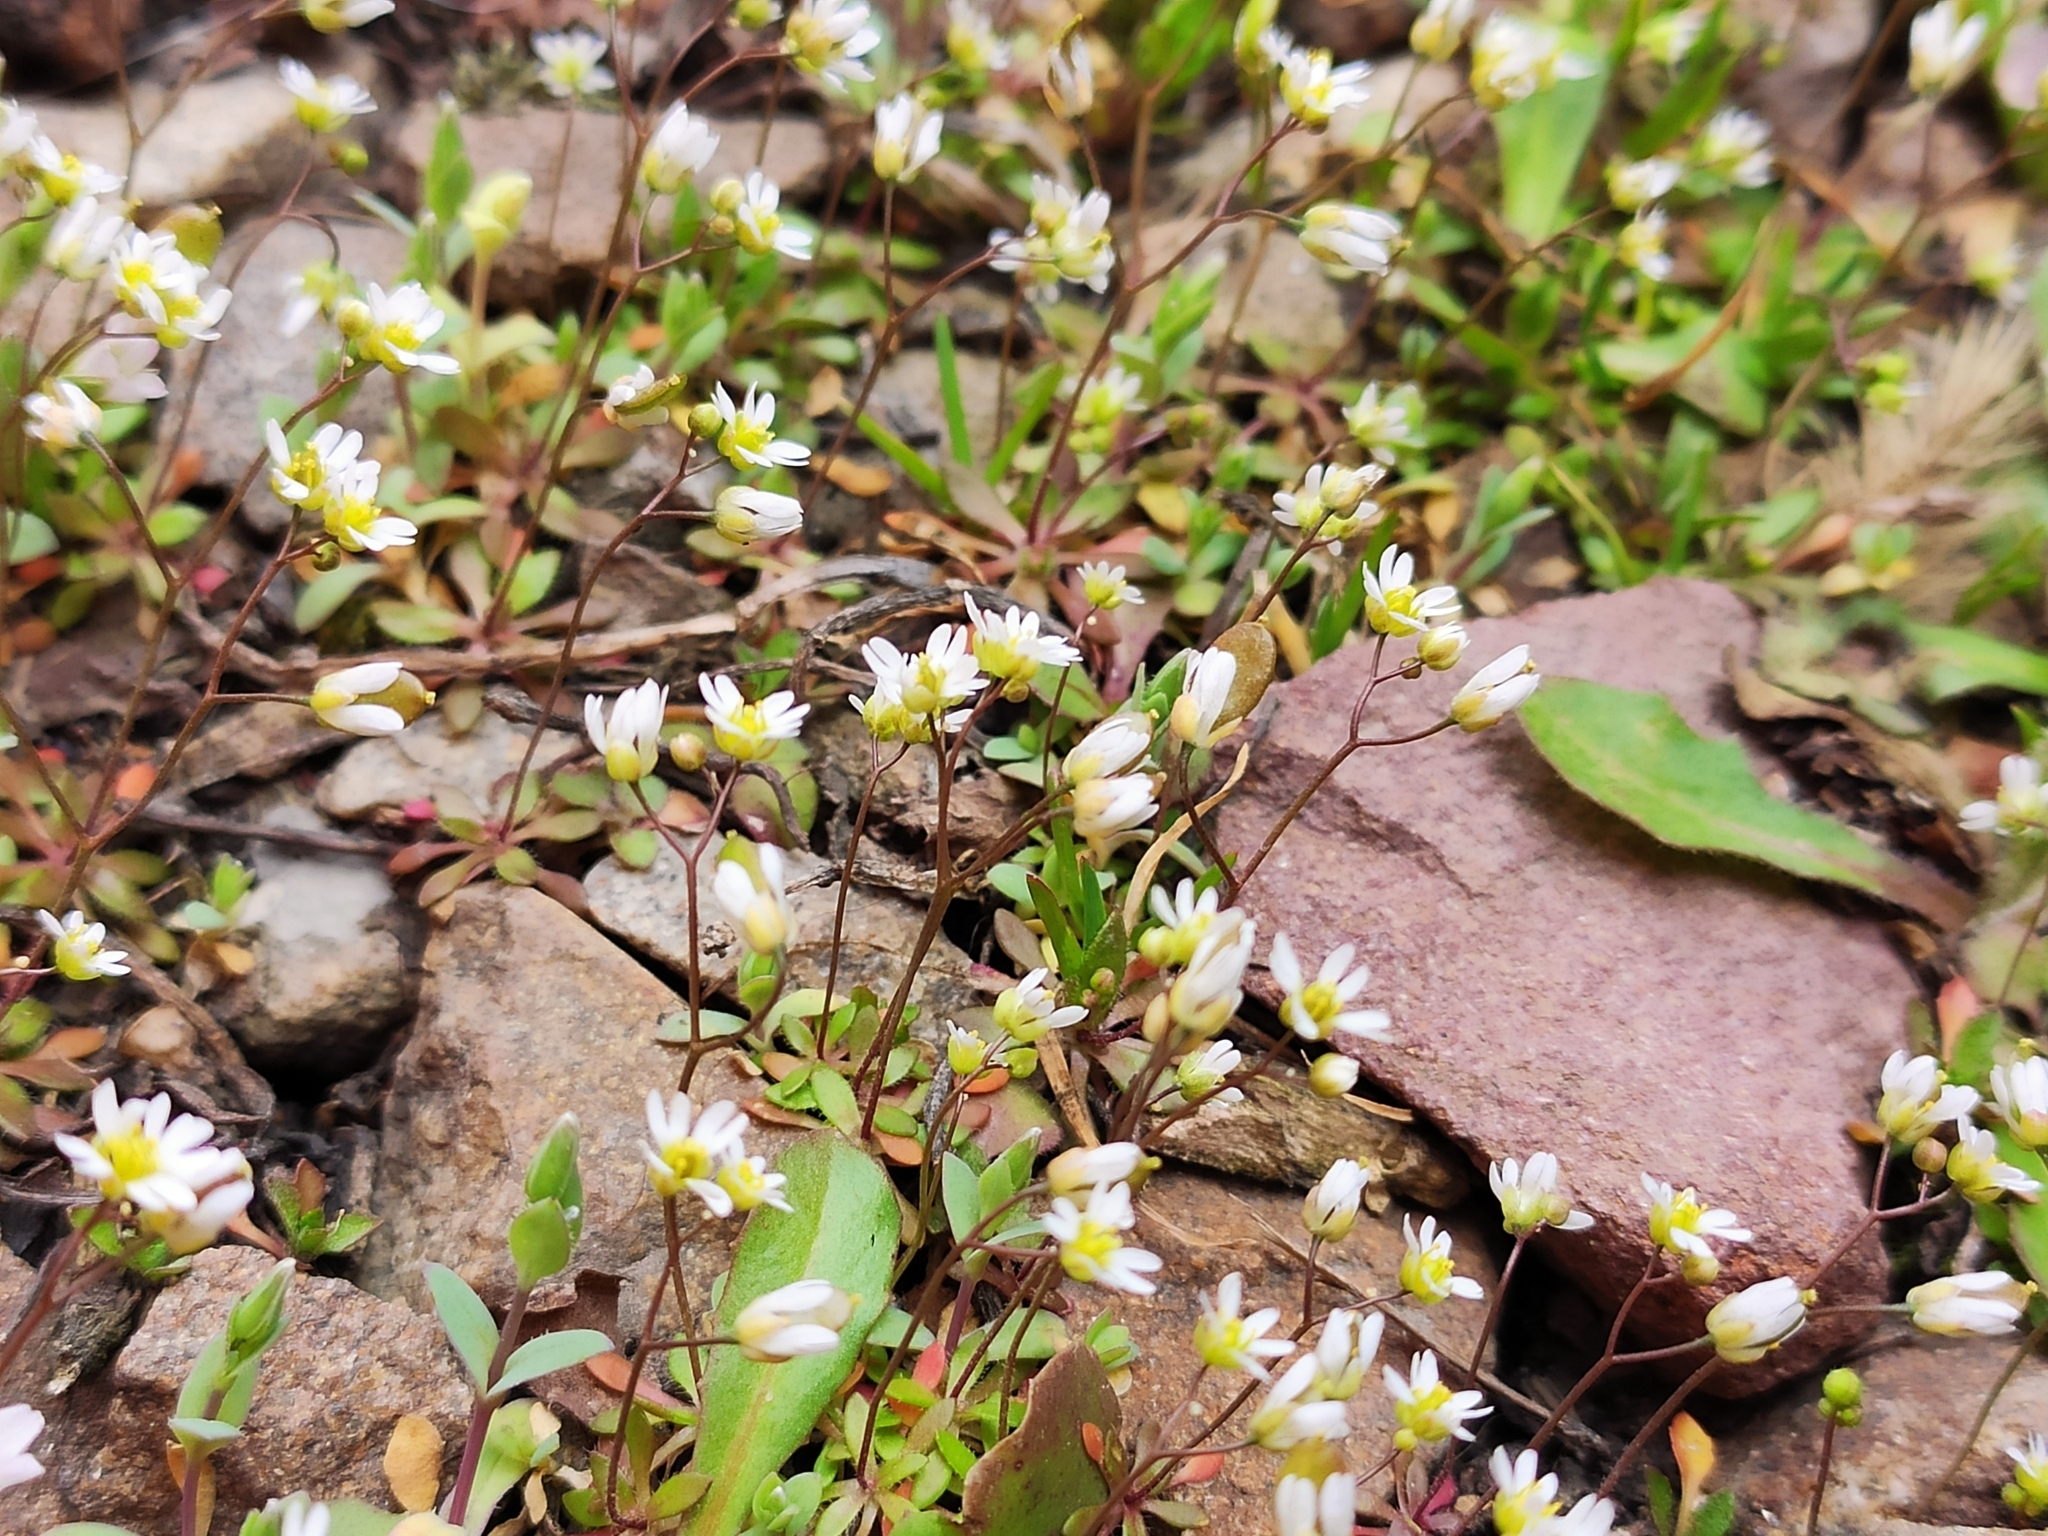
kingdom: Plantae
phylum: Tracheophyta
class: Magnoliopsida
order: Brassicales
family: Brassicaceae
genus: Draba
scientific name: Draba verna
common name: Spring draba
